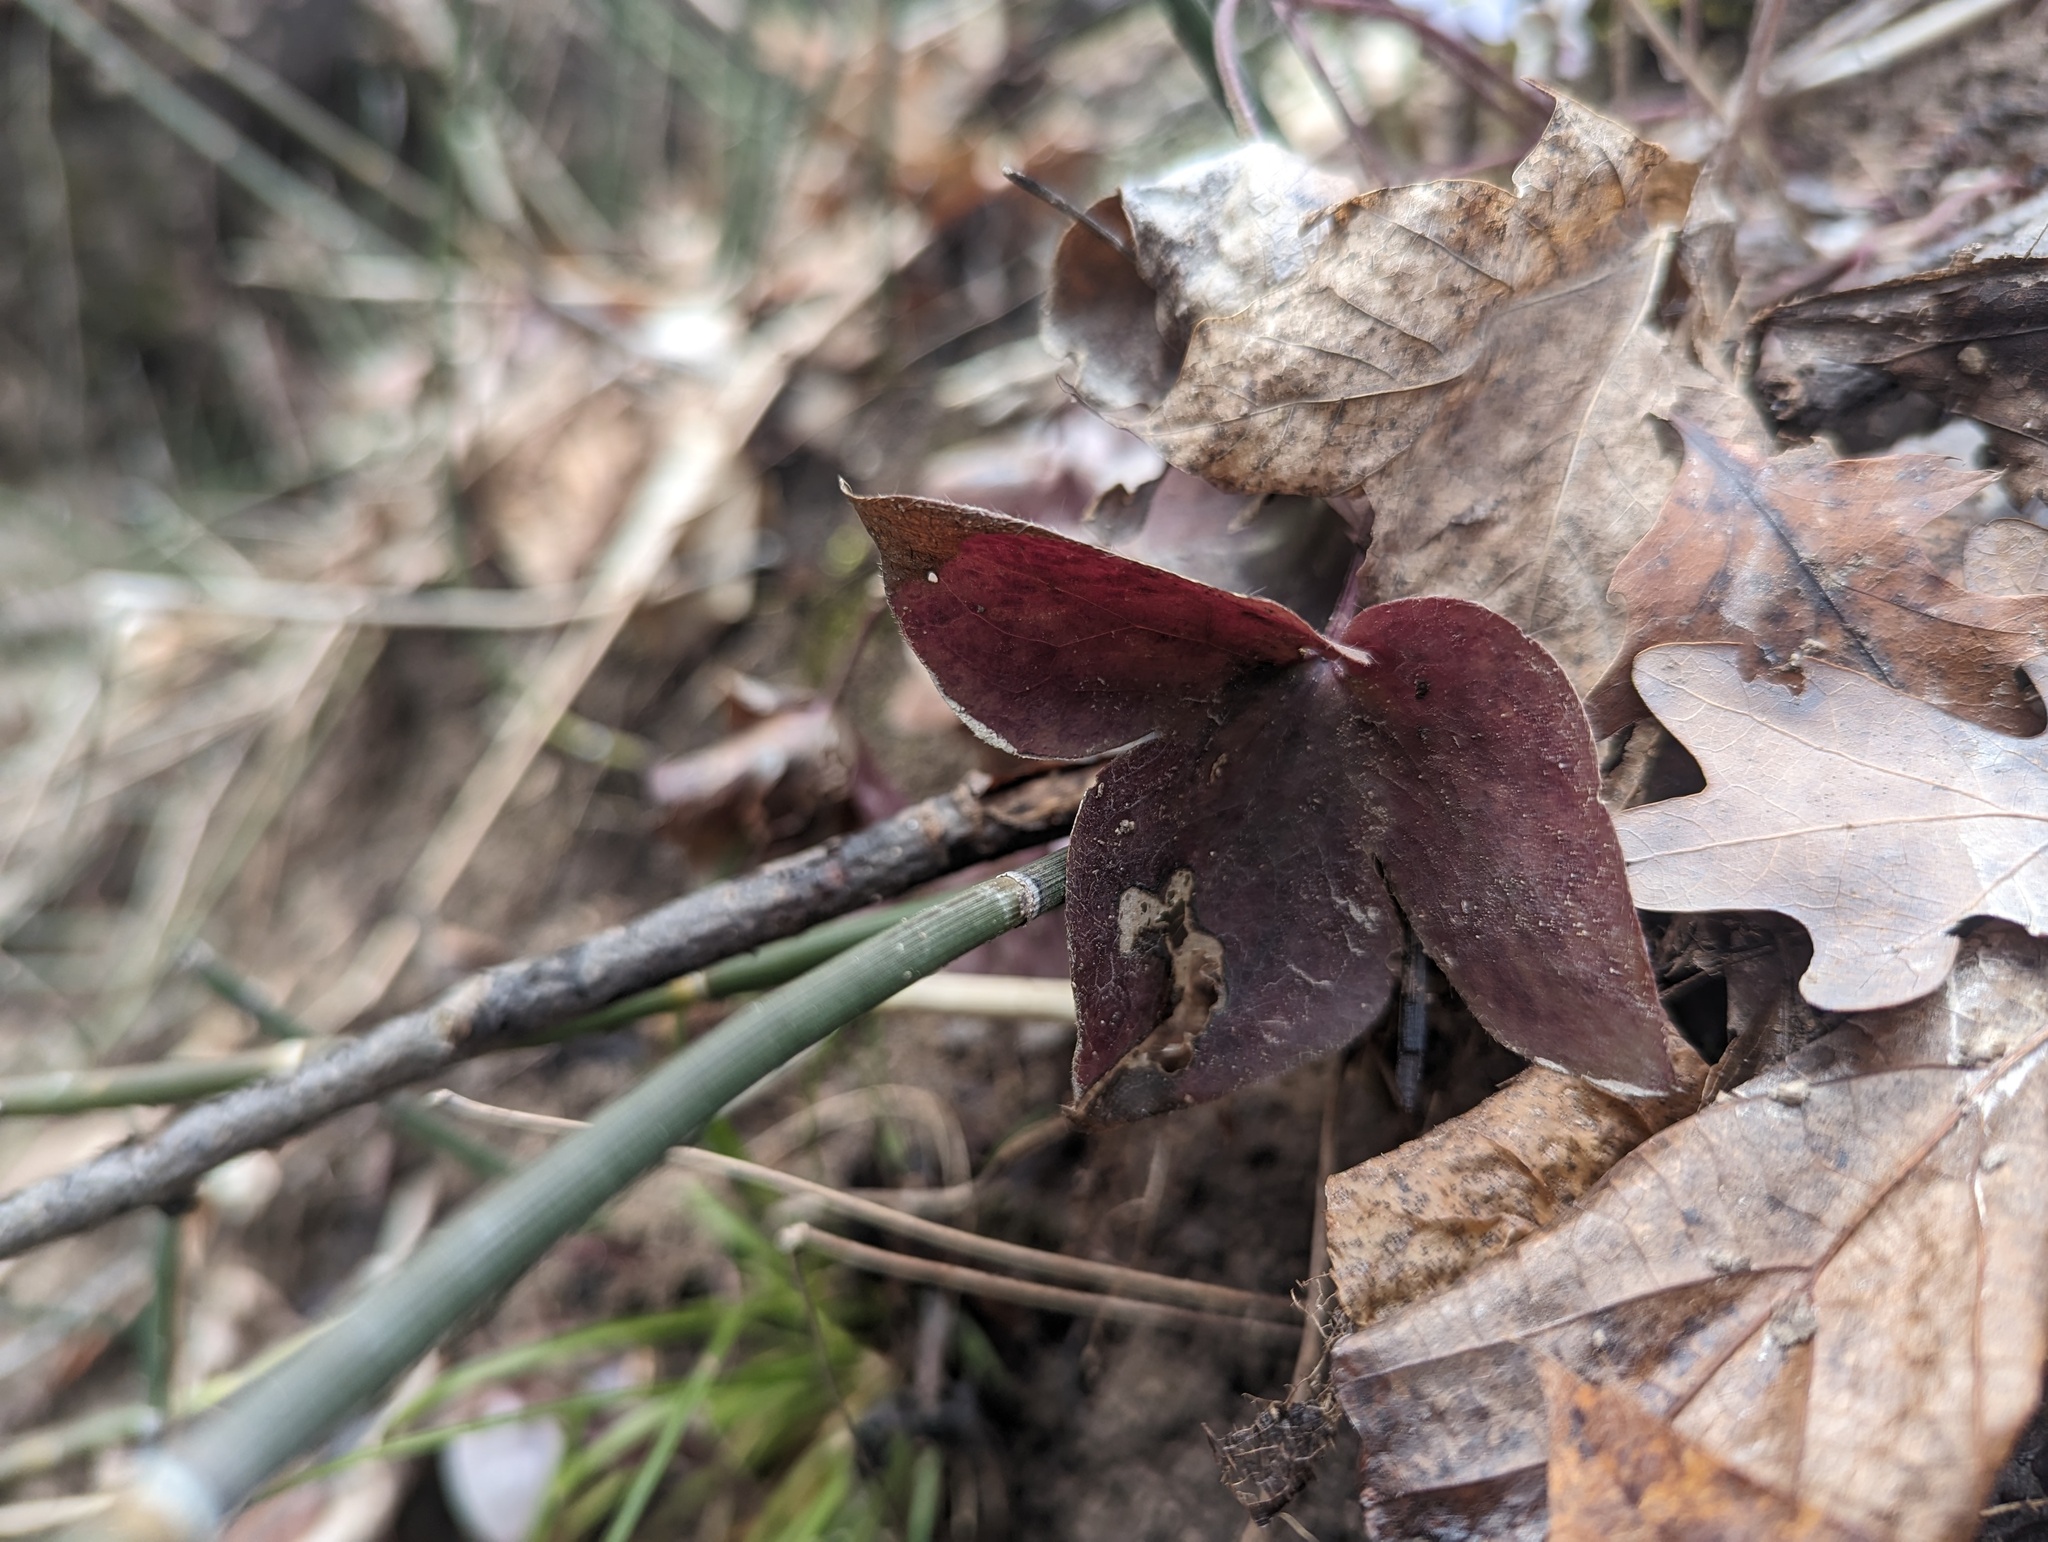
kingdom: Plantae
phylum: Tracheophyta
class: Magnoliopsida
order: Ranunculales
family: Ranunculaceae
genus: Hepatica
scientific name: Hepatica acutiloba
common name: Sharp-lobed hepatica
